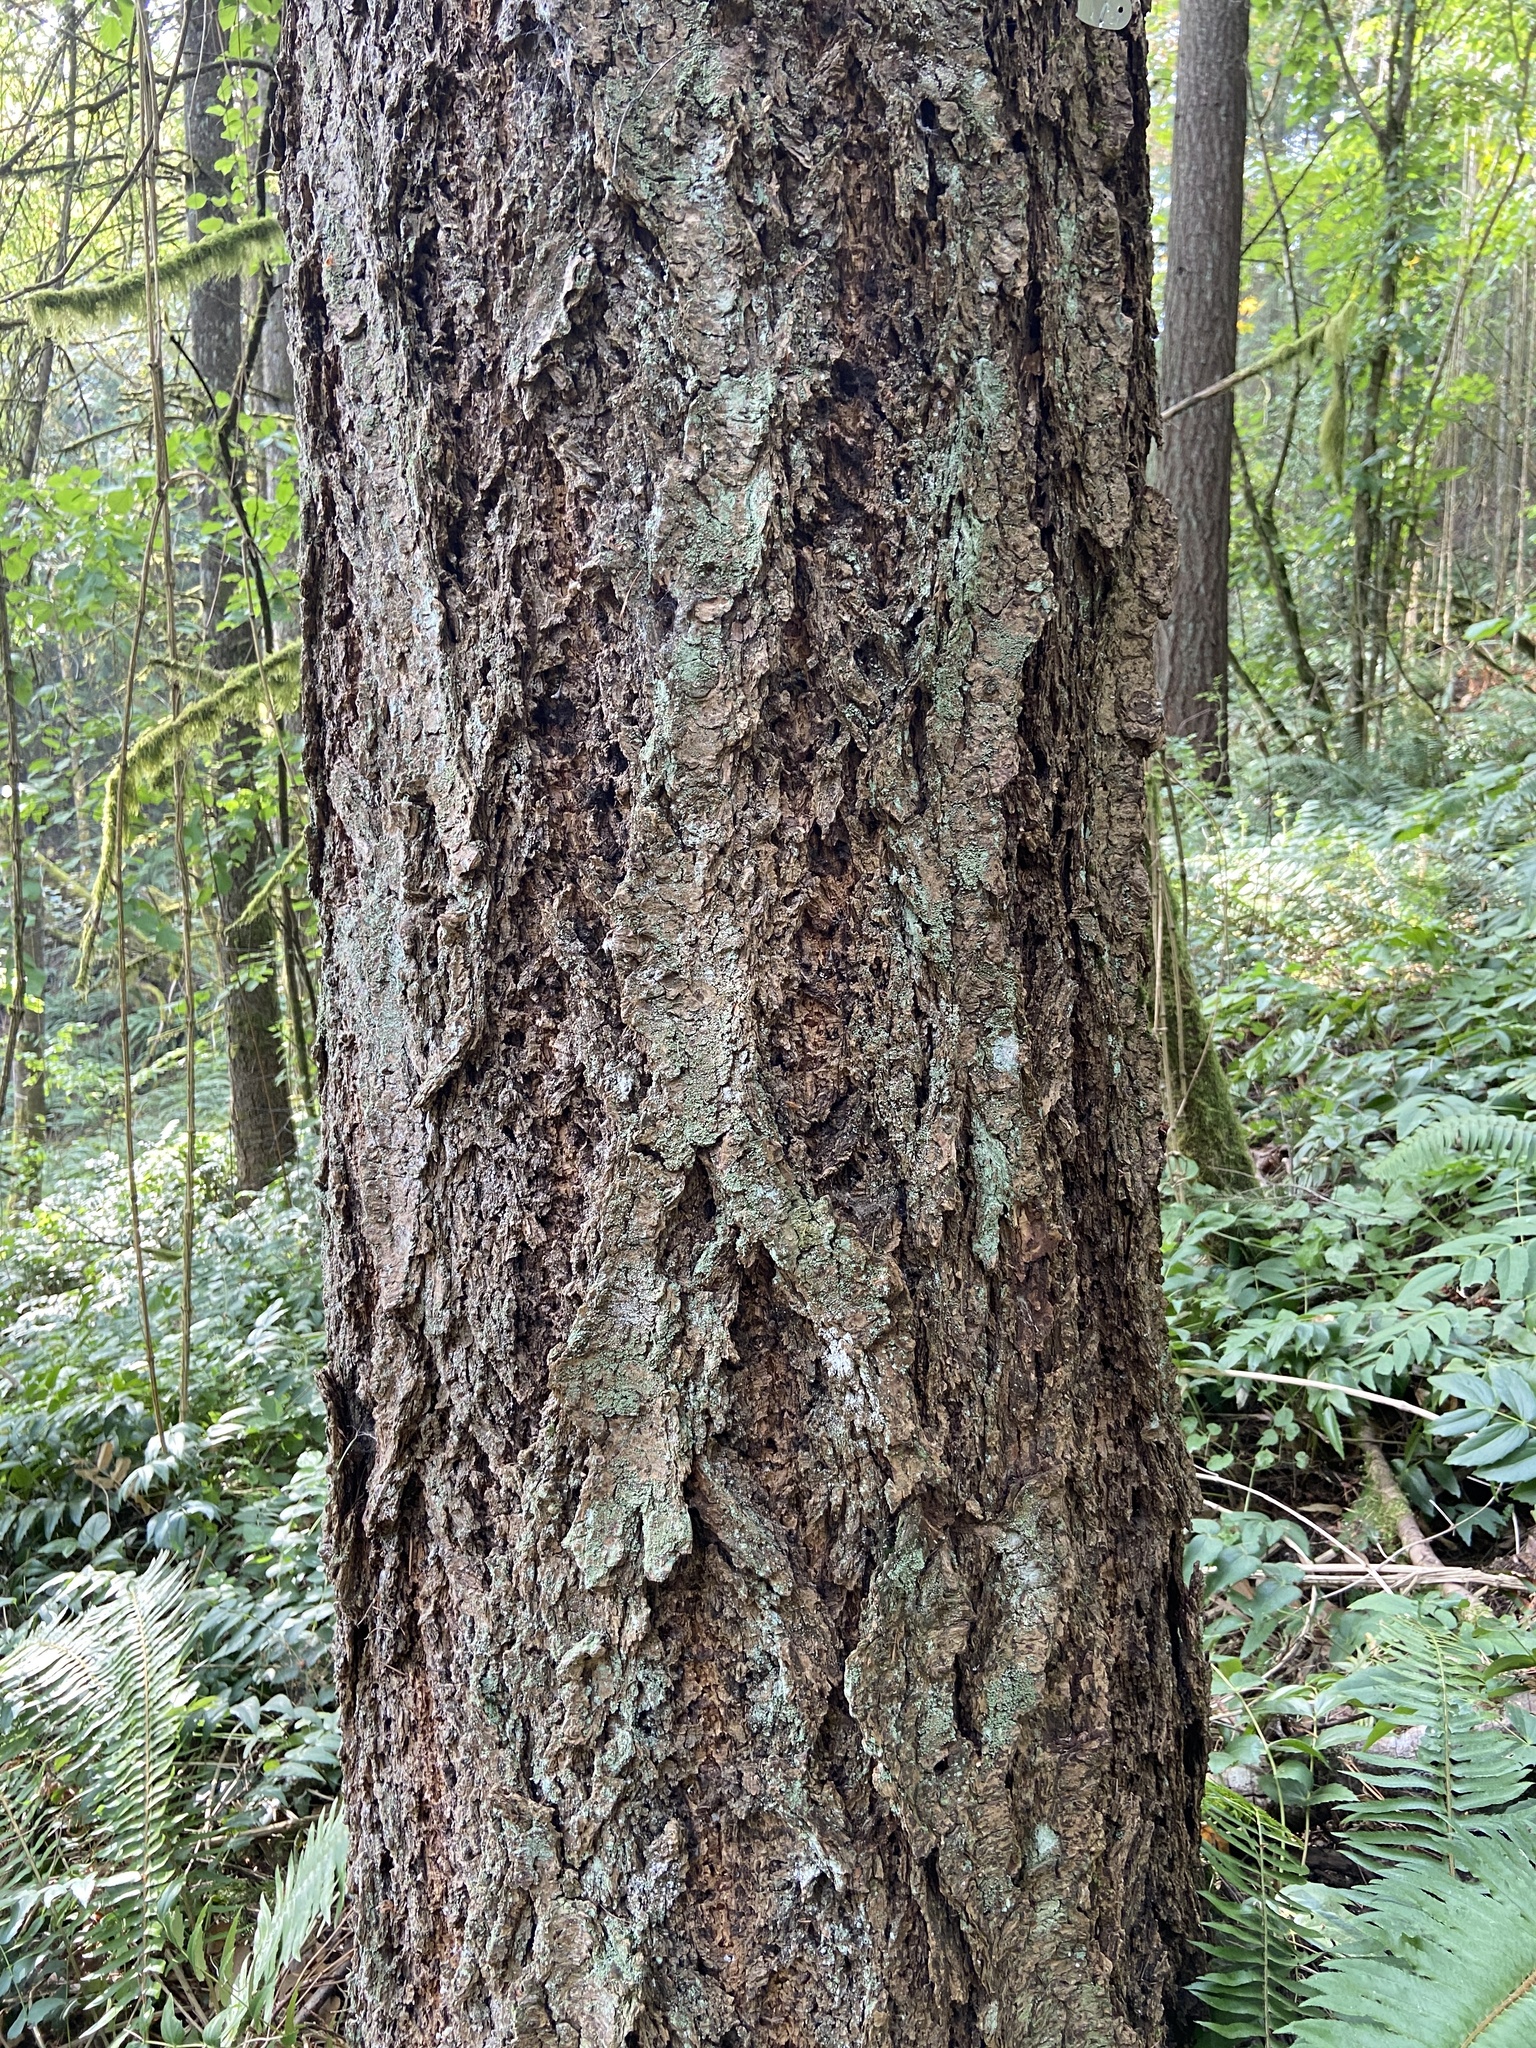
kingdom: Plantae
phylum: Tracheophyta
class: Pinopsida
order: Pinales
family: Pinaceae
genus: Pseudotsuga
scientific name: Pseudotsuga menziesii
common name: Douglas fir
